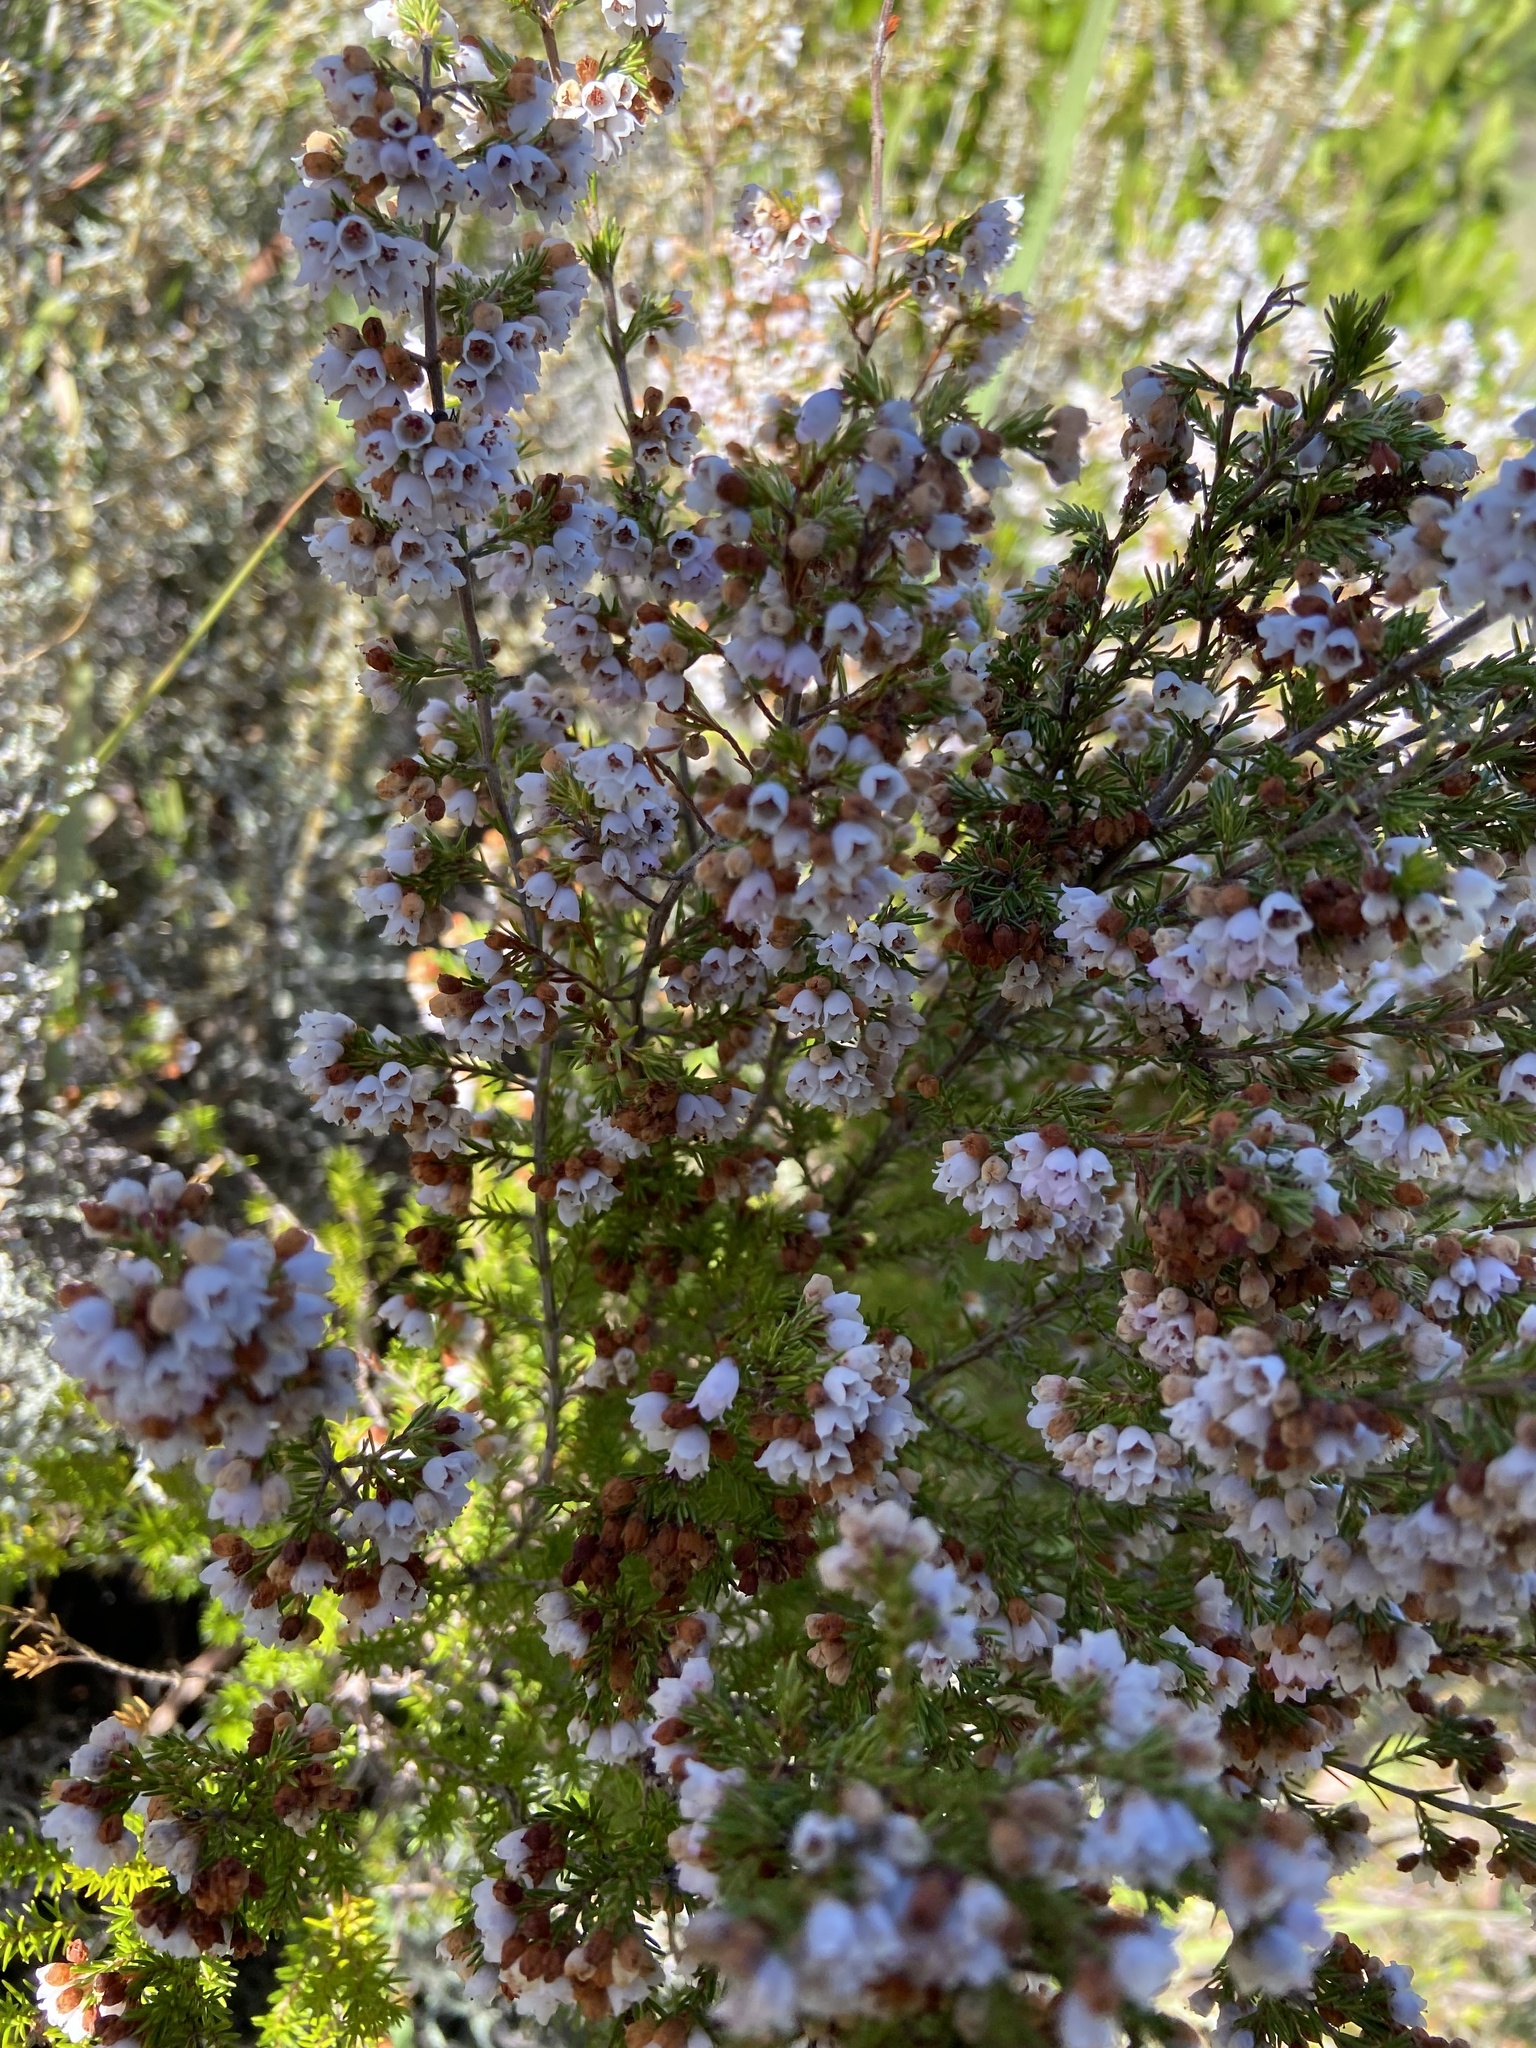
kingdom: Plantae
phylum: Tracheophyta
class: Magnoliopsida
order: Ericales
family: Ericaceae
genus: Erica
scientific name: Erica subdivaricata
